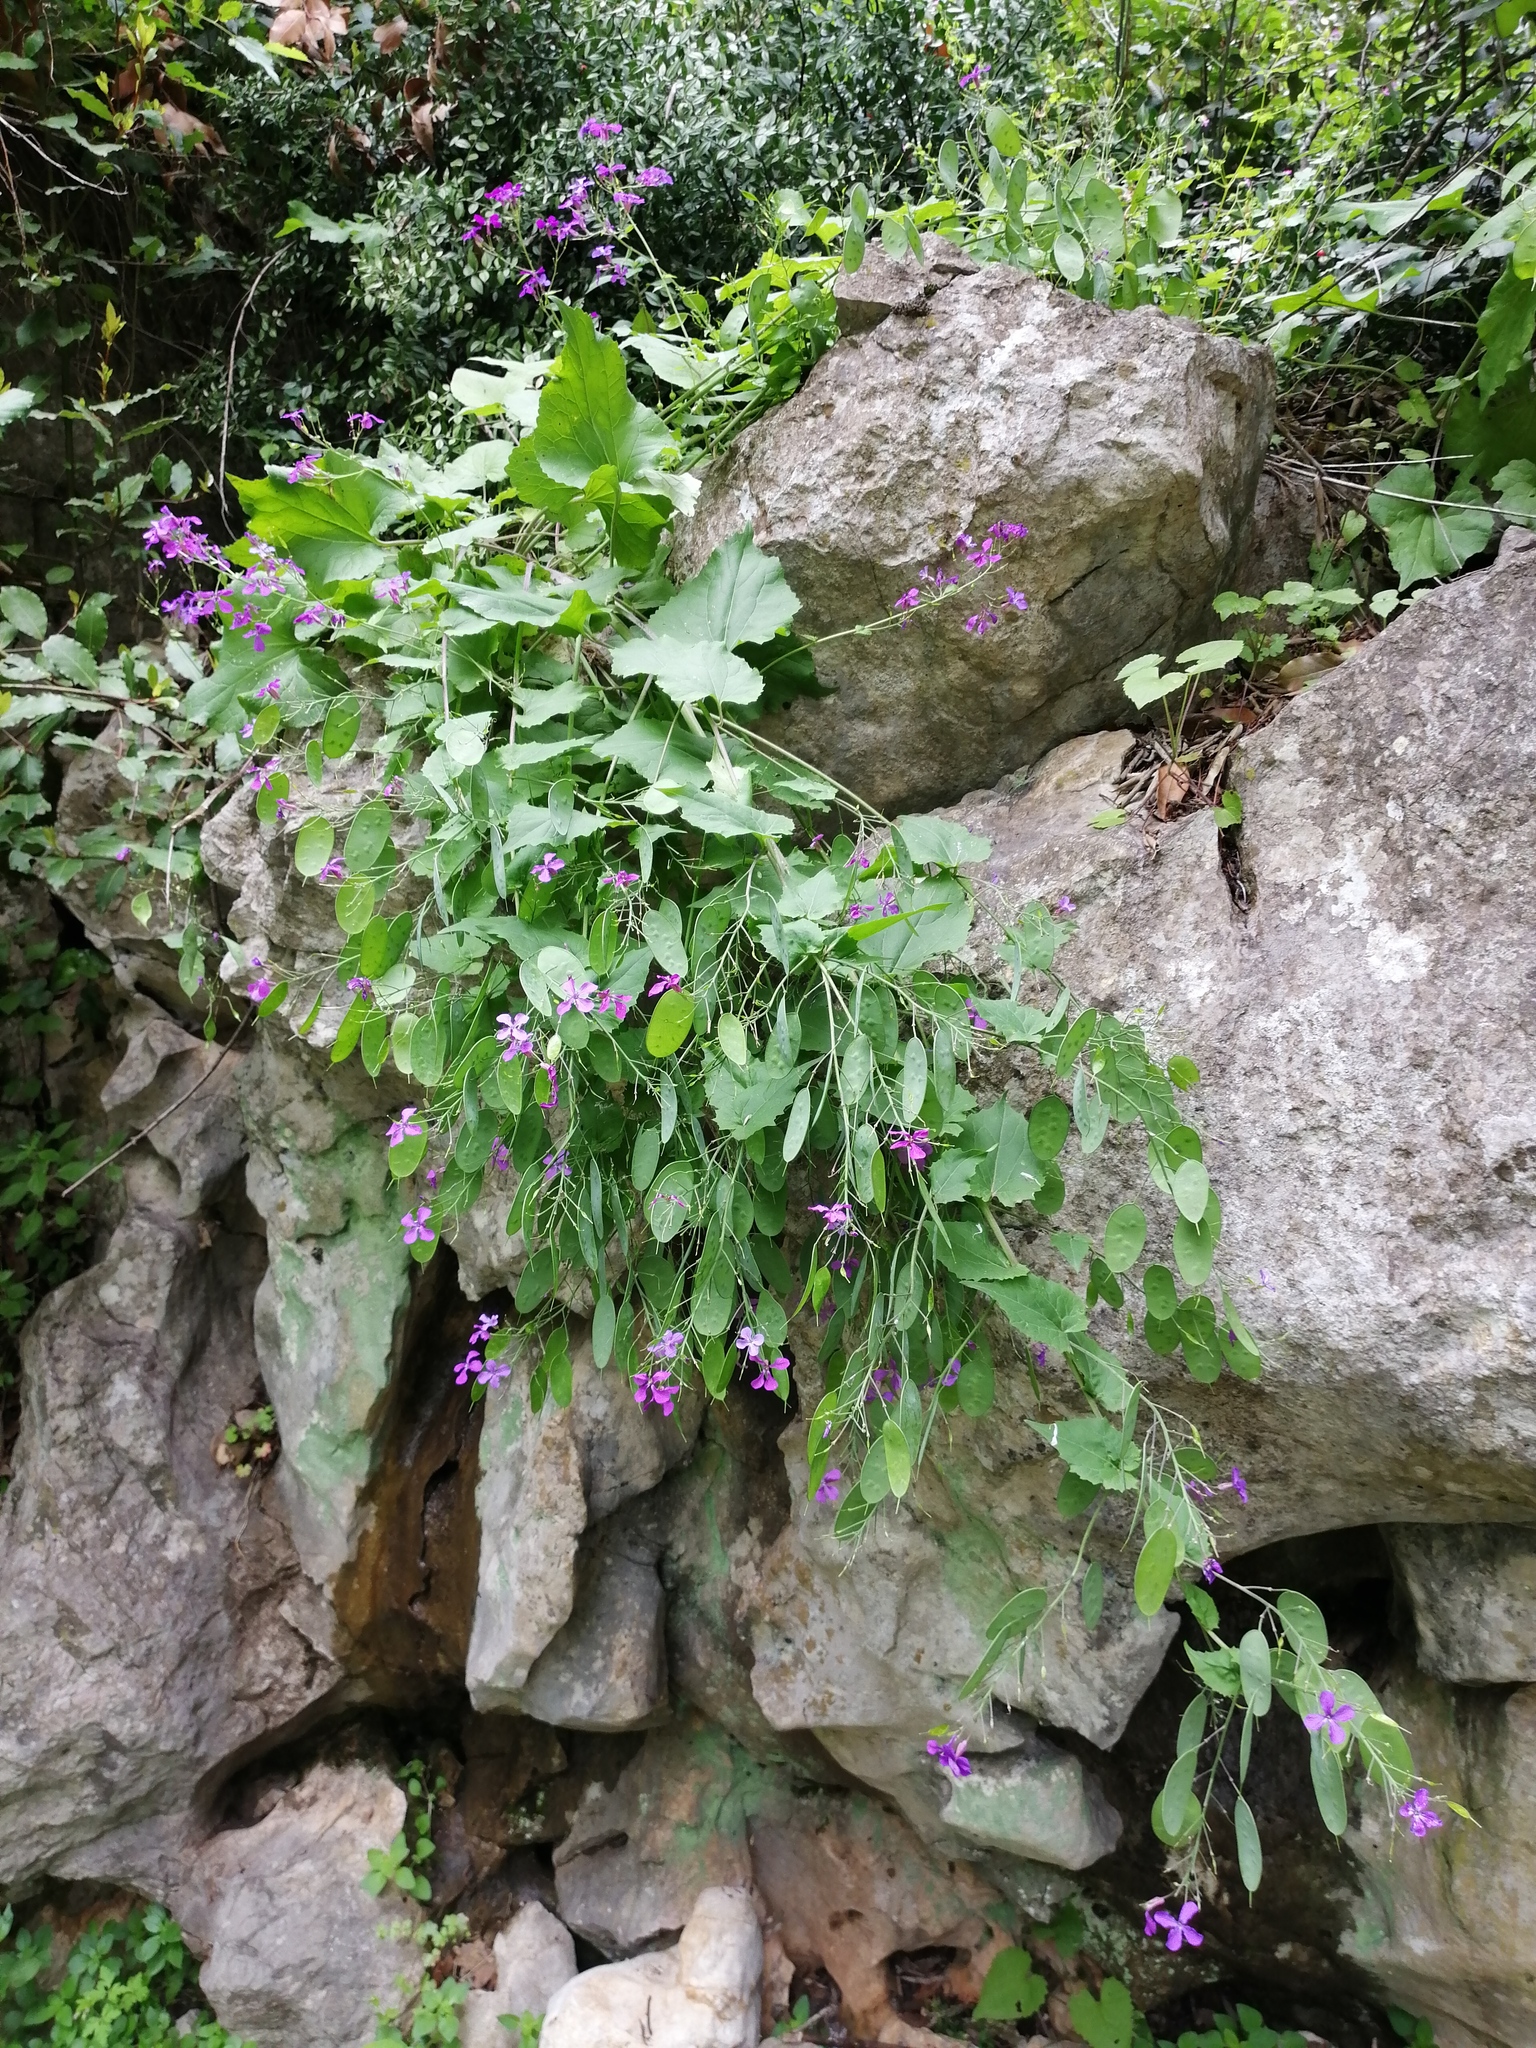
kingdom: Plantae
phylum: Tracheophyta
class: Magnoliopsida
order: Brassicales
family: Brassicaceae
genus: Lunaria
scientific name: Lunaria annua
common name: Honesty
